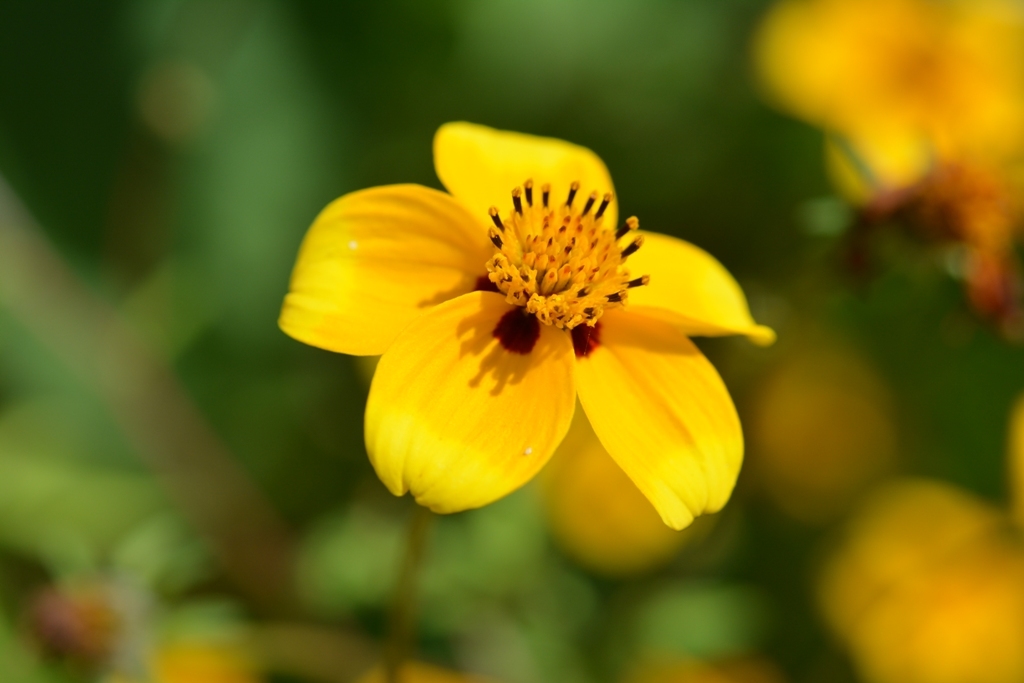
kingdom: Plantae
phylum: Tracheophyta
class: Magnoliopsida
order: Asterales
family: Asteraceae
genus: Bidens
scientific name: Bidens bicolor
